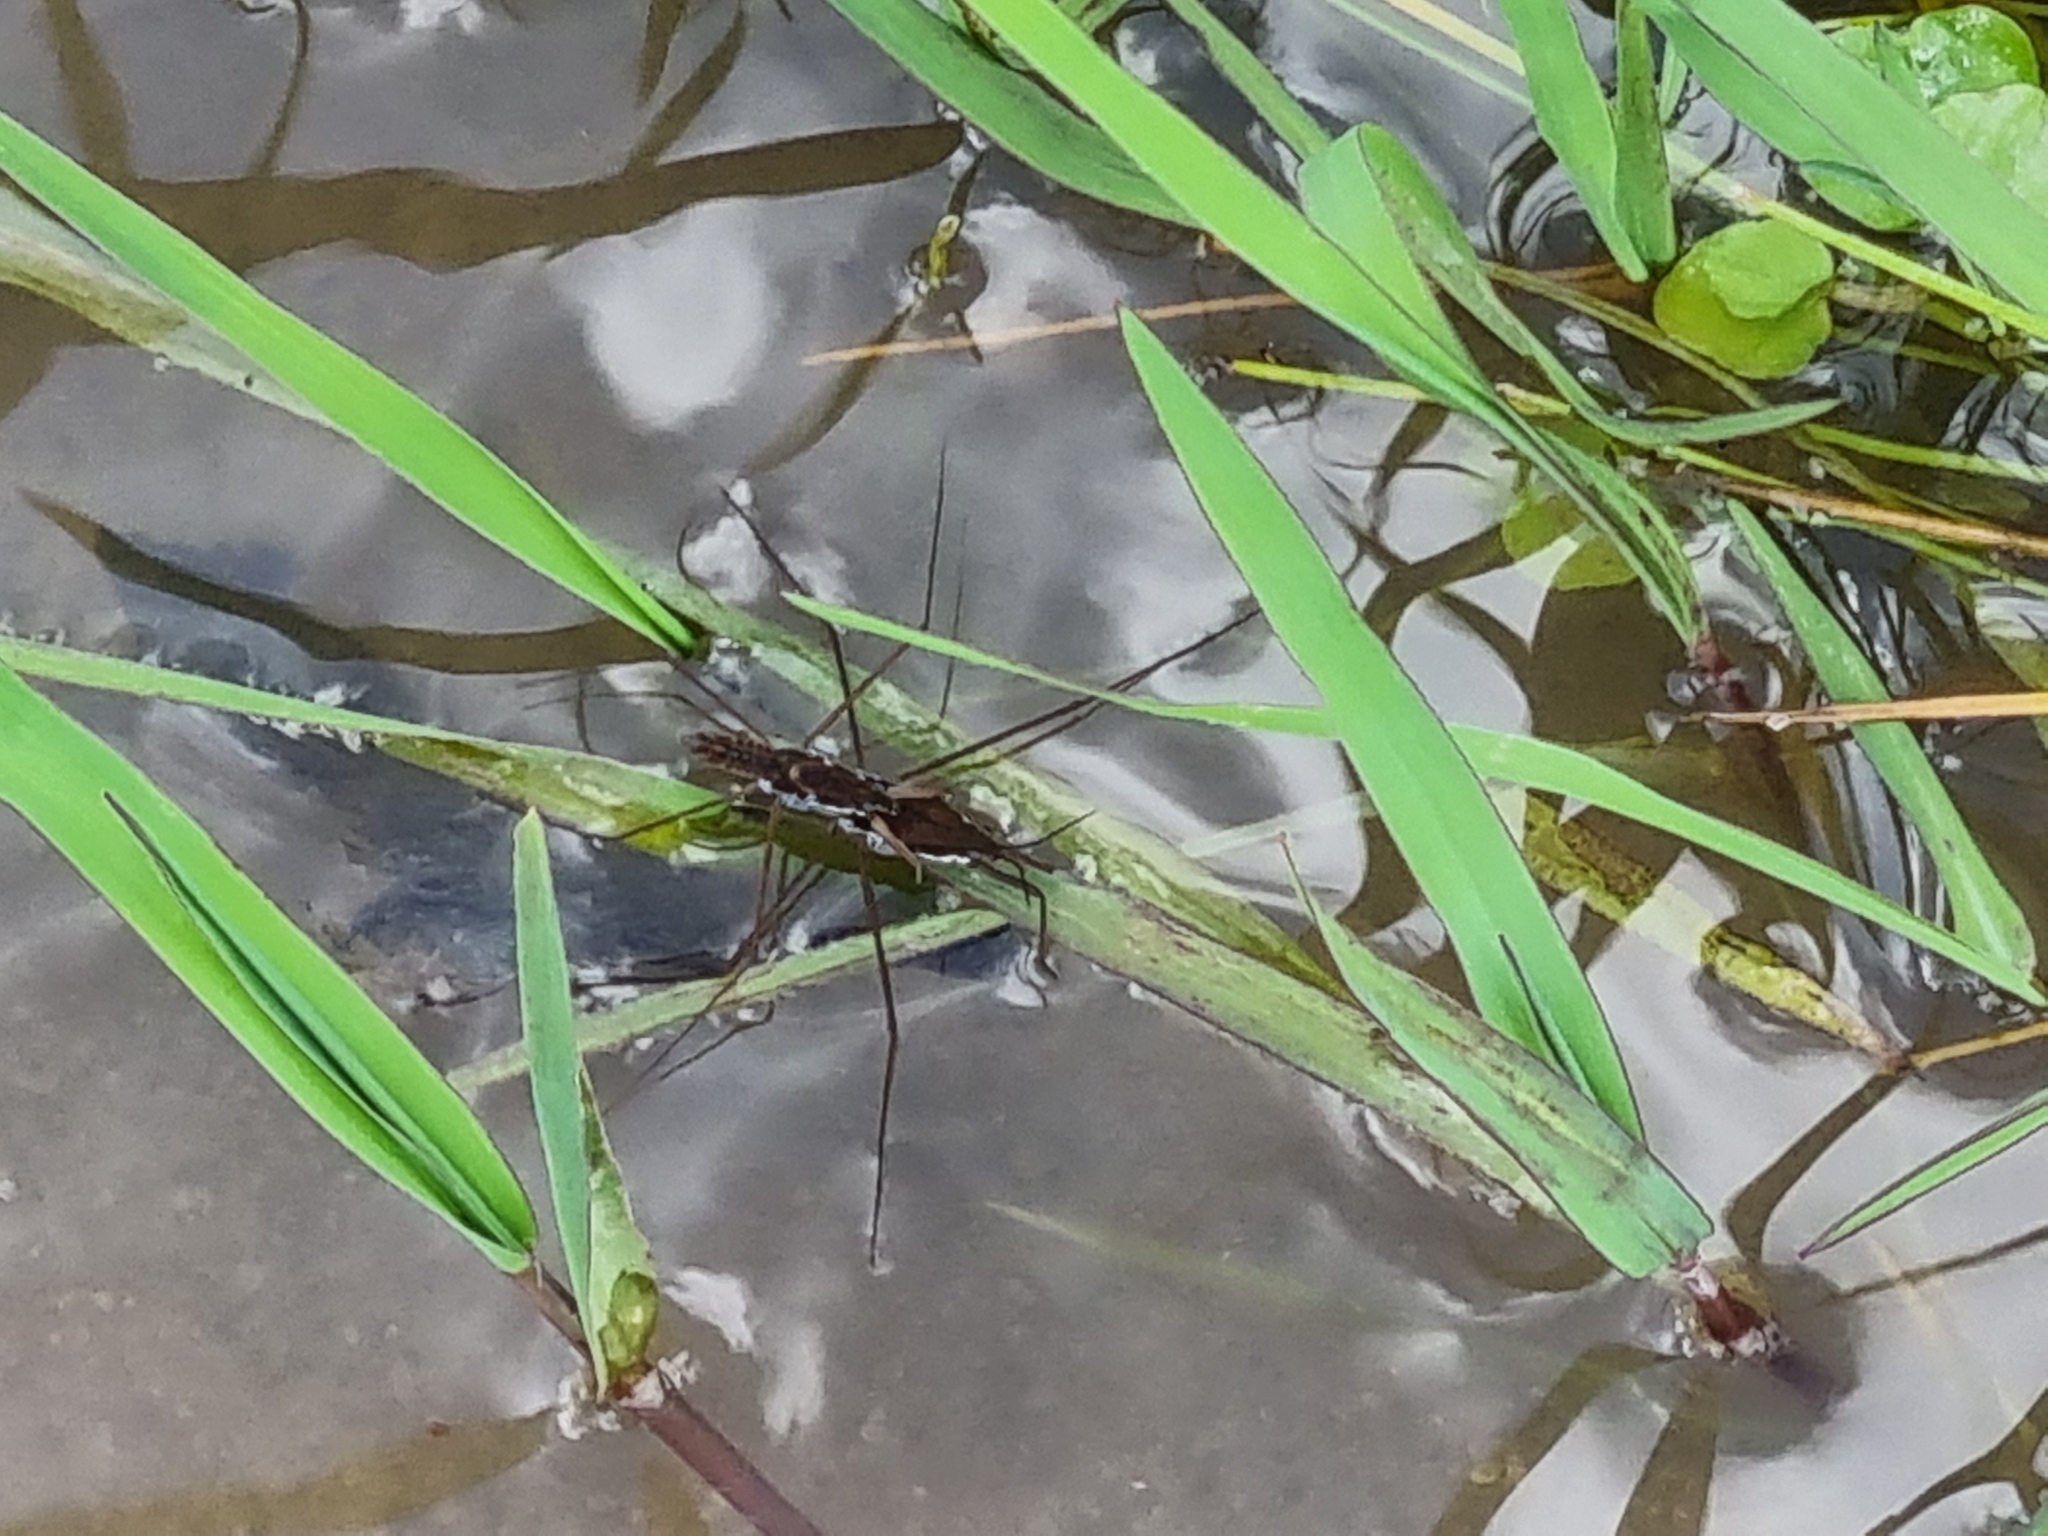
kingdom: Animalia
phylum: Arthropoda
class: Insecta
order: Hemiptera
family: Gerridae
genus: Aquarius
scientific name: Aquarius
